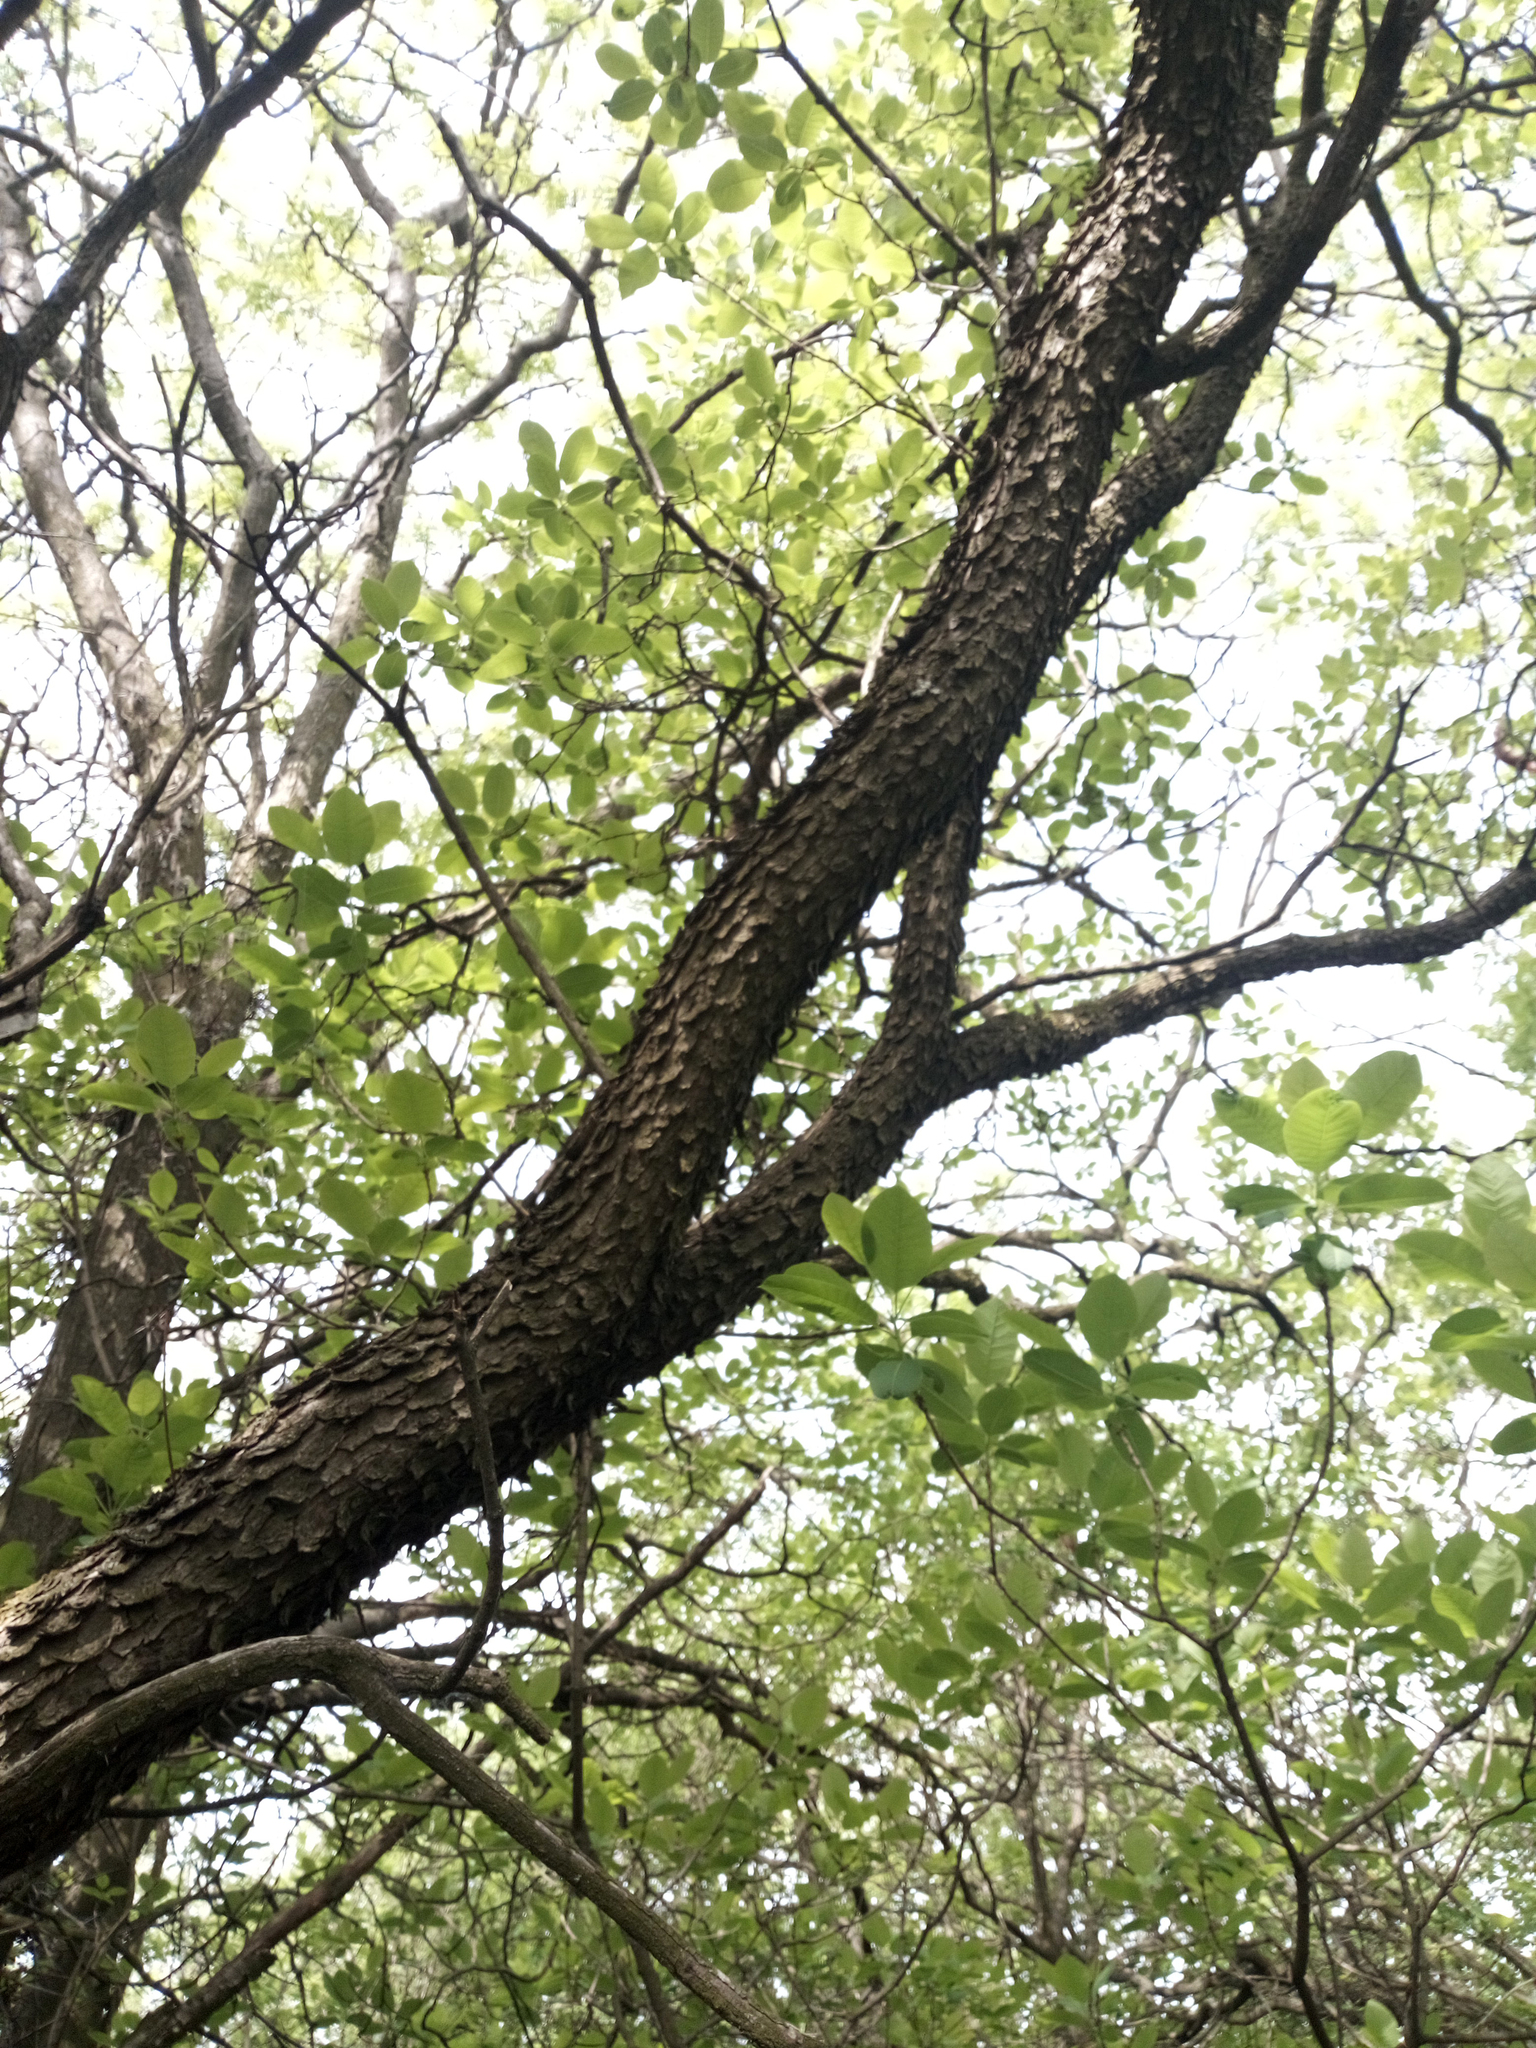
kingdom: Plantae
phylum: Tracheophyta
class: Magnoliopsida
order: Sapindales
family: Anacardiaceae
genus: Cotinus
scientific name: Cotinus coggygria
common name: Smoke-tree
